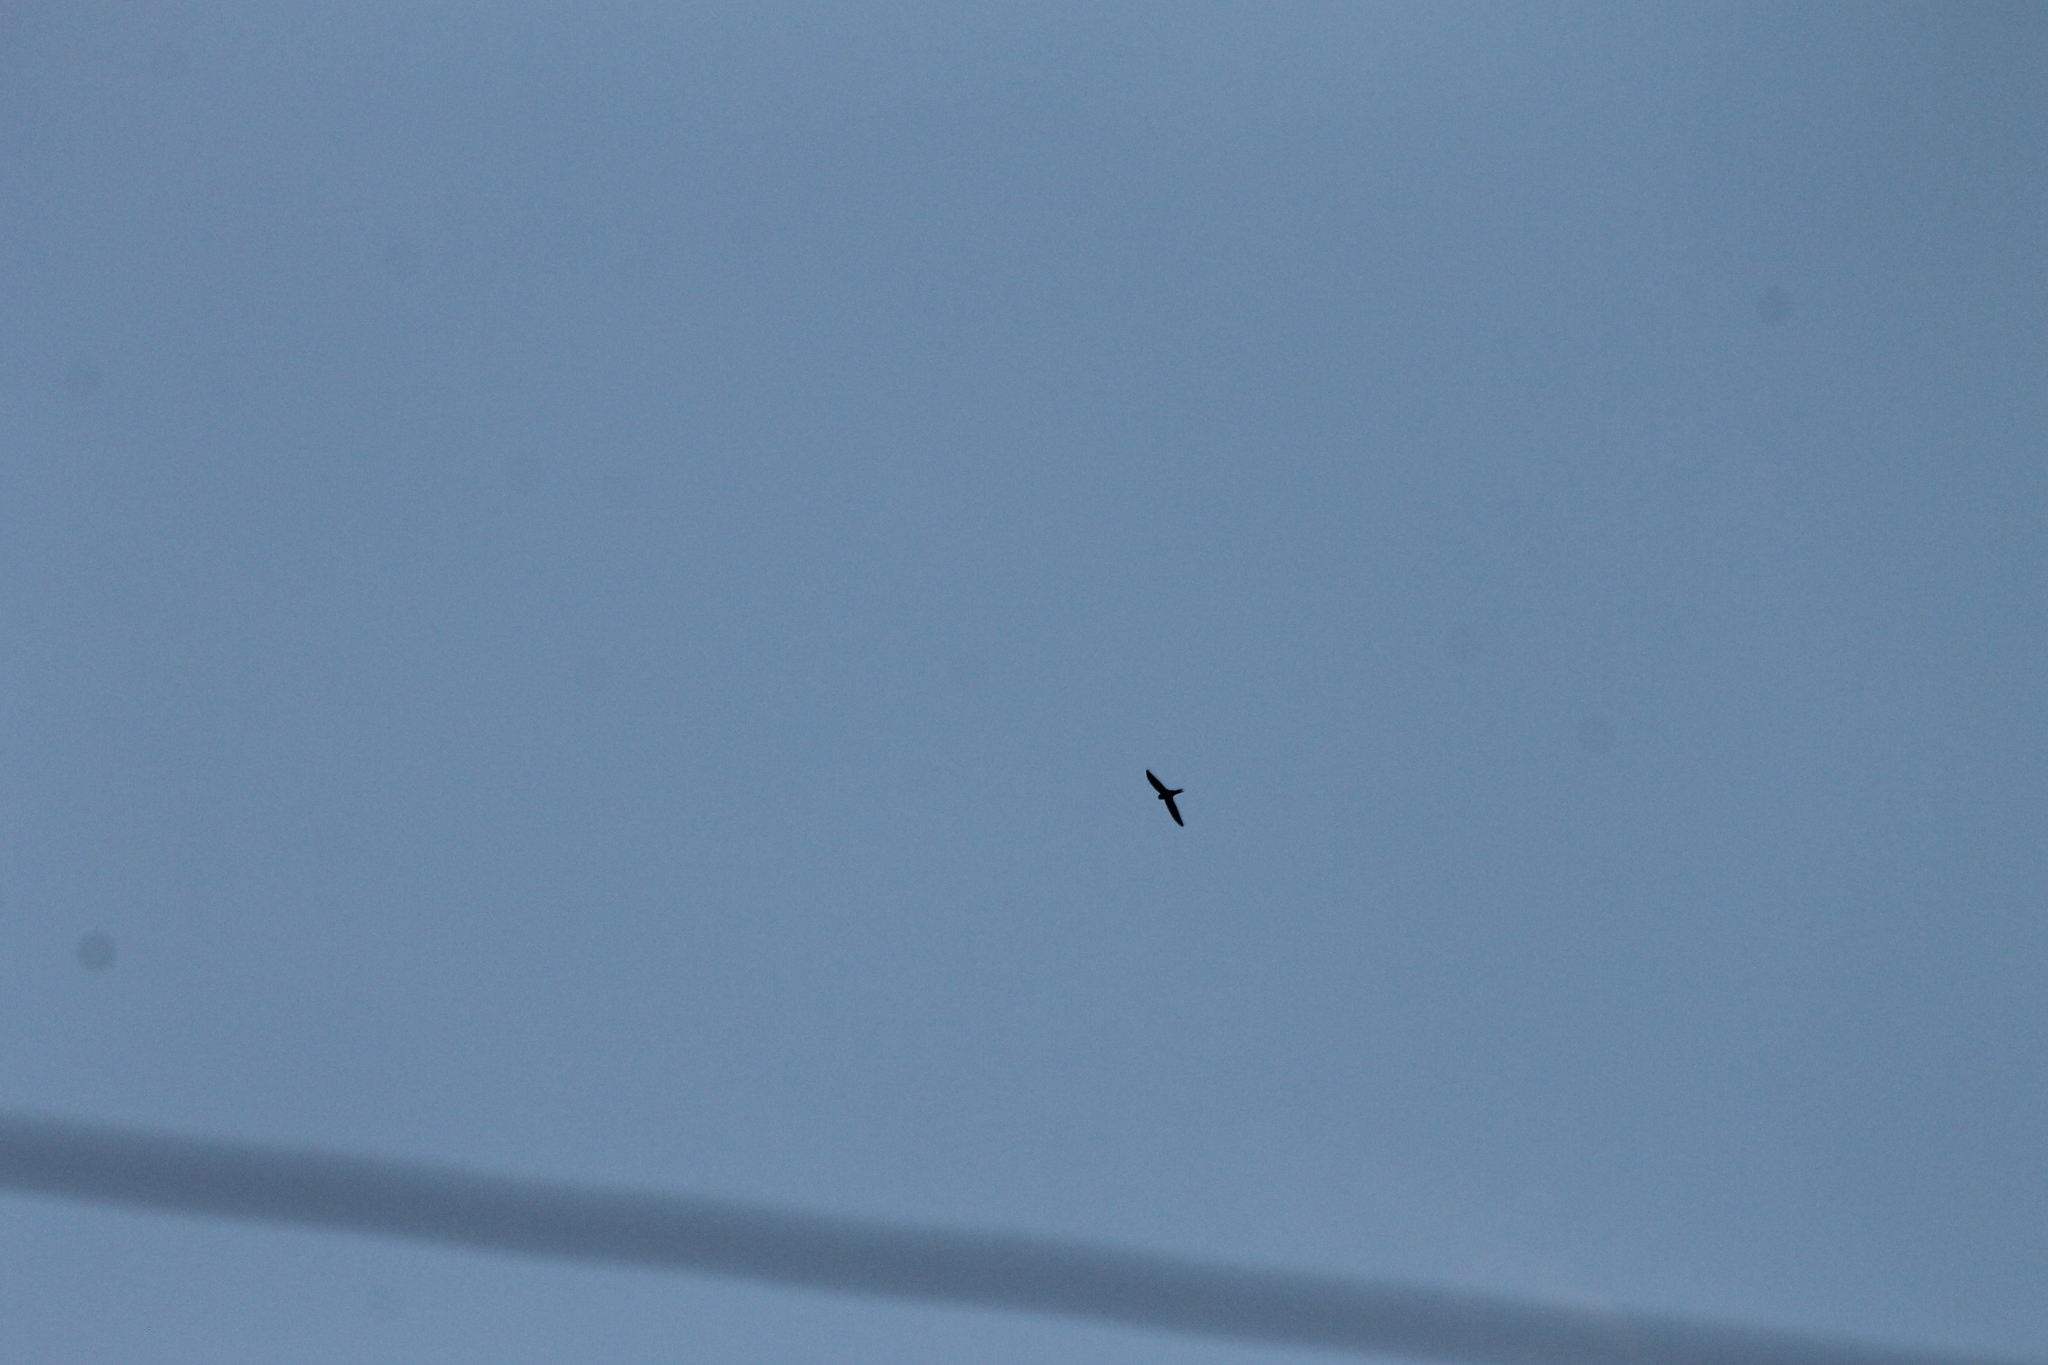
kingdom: Animalia
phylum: Chordata
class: Aves
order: Apodiformes
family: Apodidae
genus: Apus
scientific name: Apus apus
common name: Common swift
